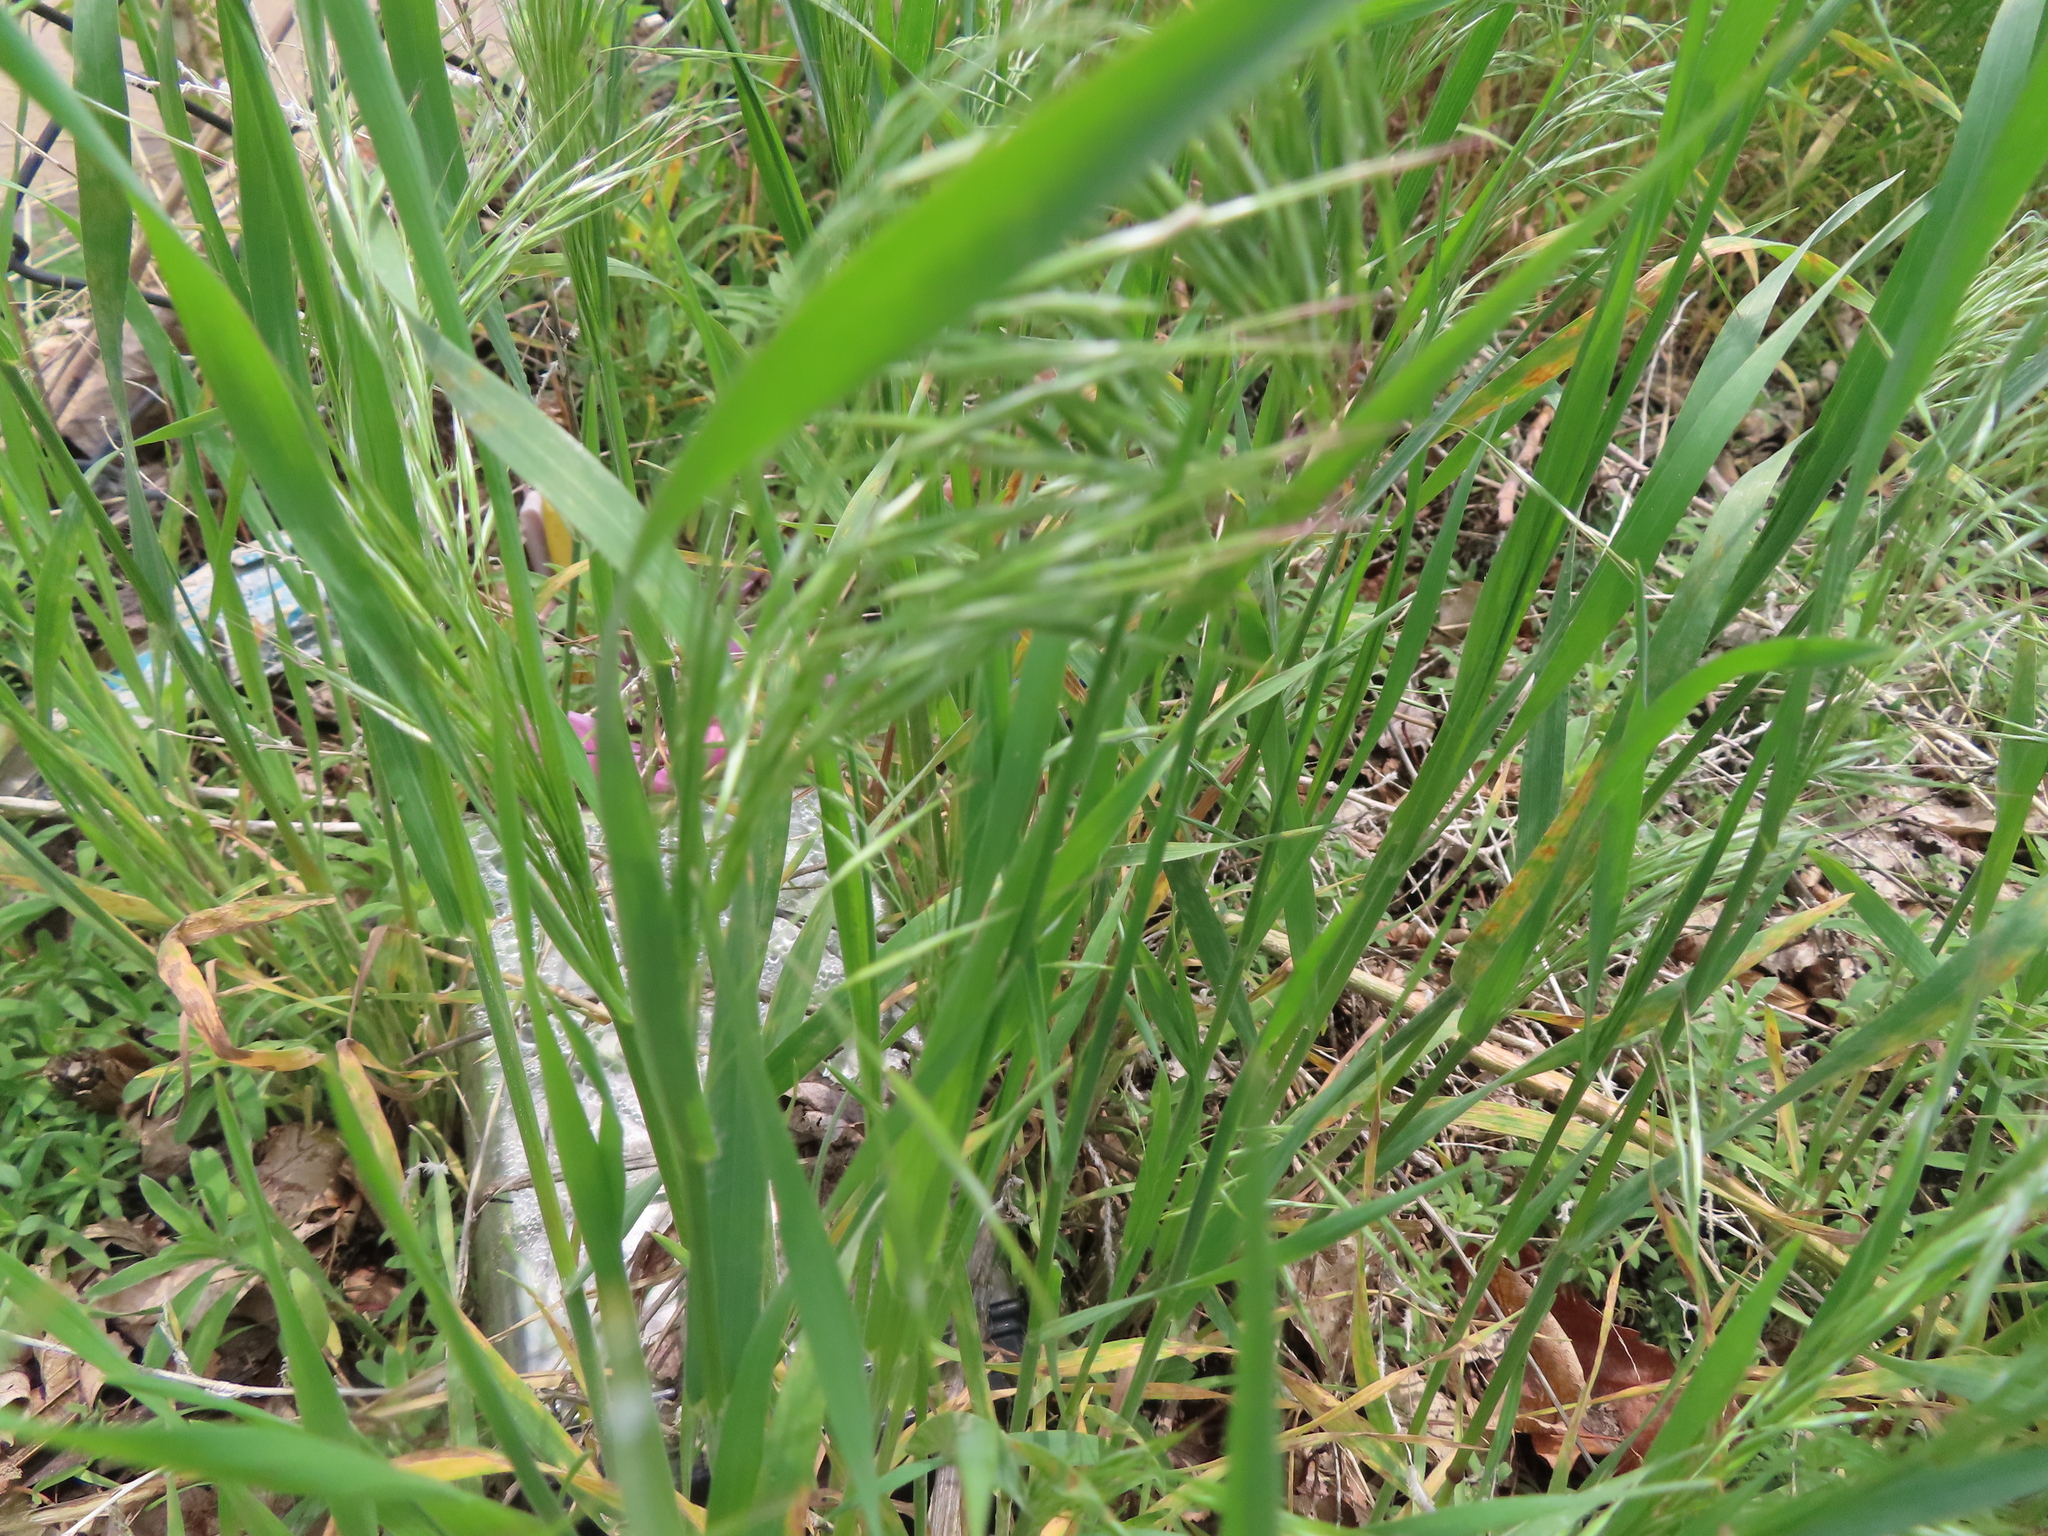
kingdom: Plantae
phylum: Tracheophyta
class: Liliopsida
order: Poales
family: Poaceae
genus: Bromus
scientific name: Bromus tectorum
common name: Cheatgrass
